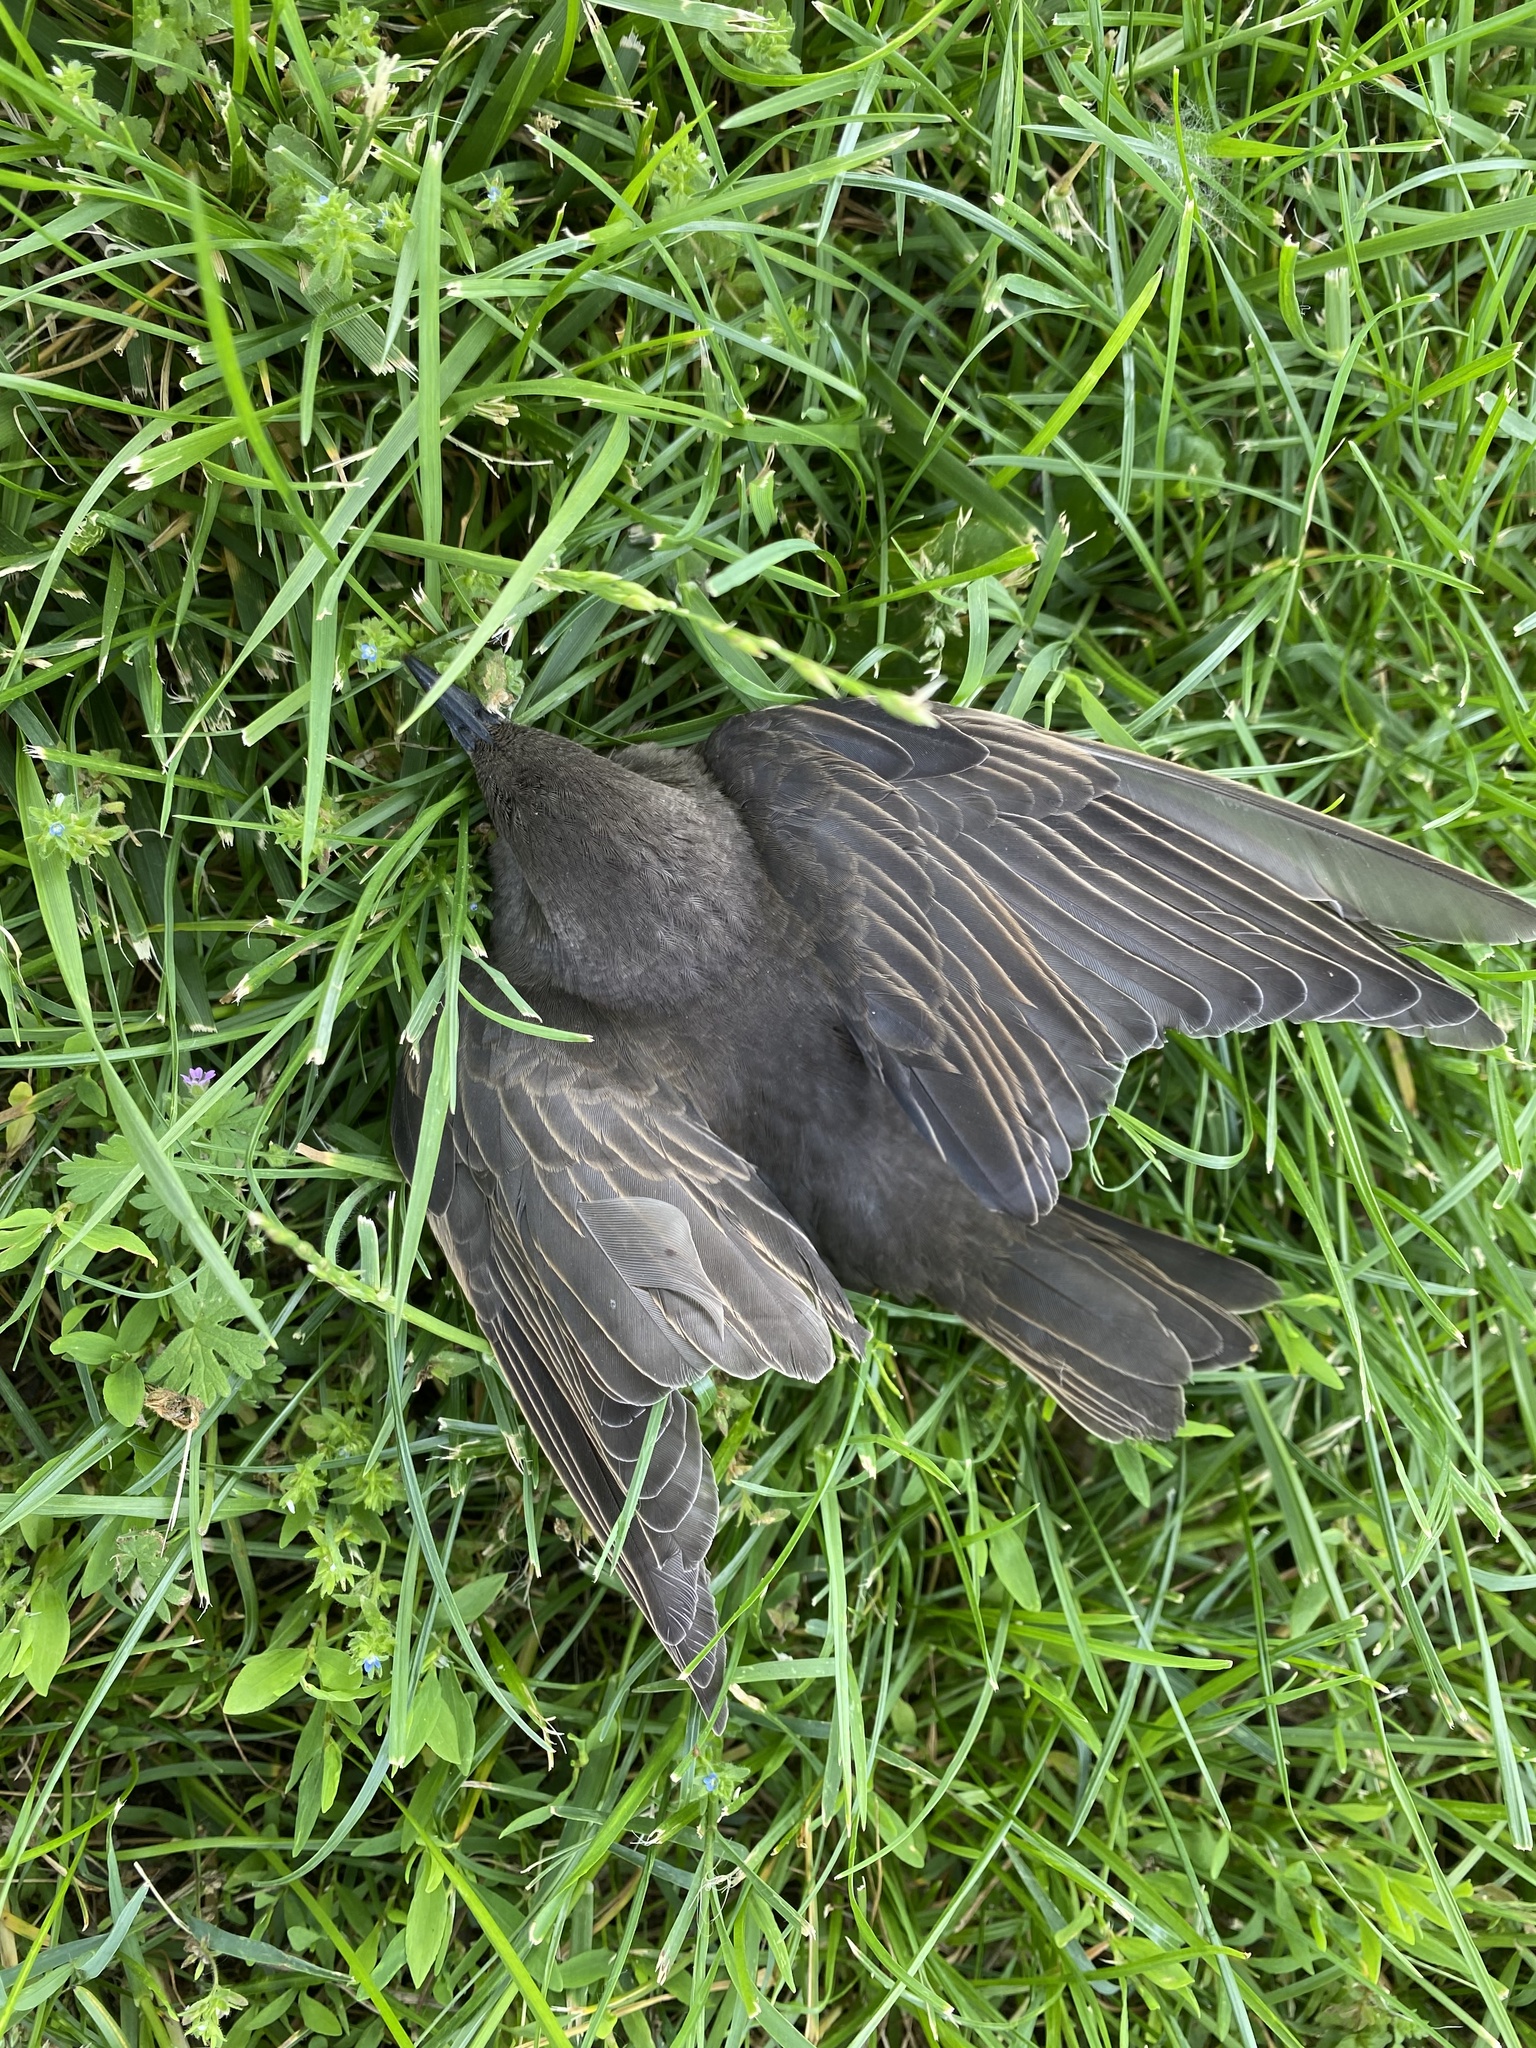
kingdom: Animalia
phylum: Chordata
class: Aves
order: Passeriformes
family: Sturnidae
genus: Sturnus
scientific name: Sturnus vulgaris
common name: Common starling
